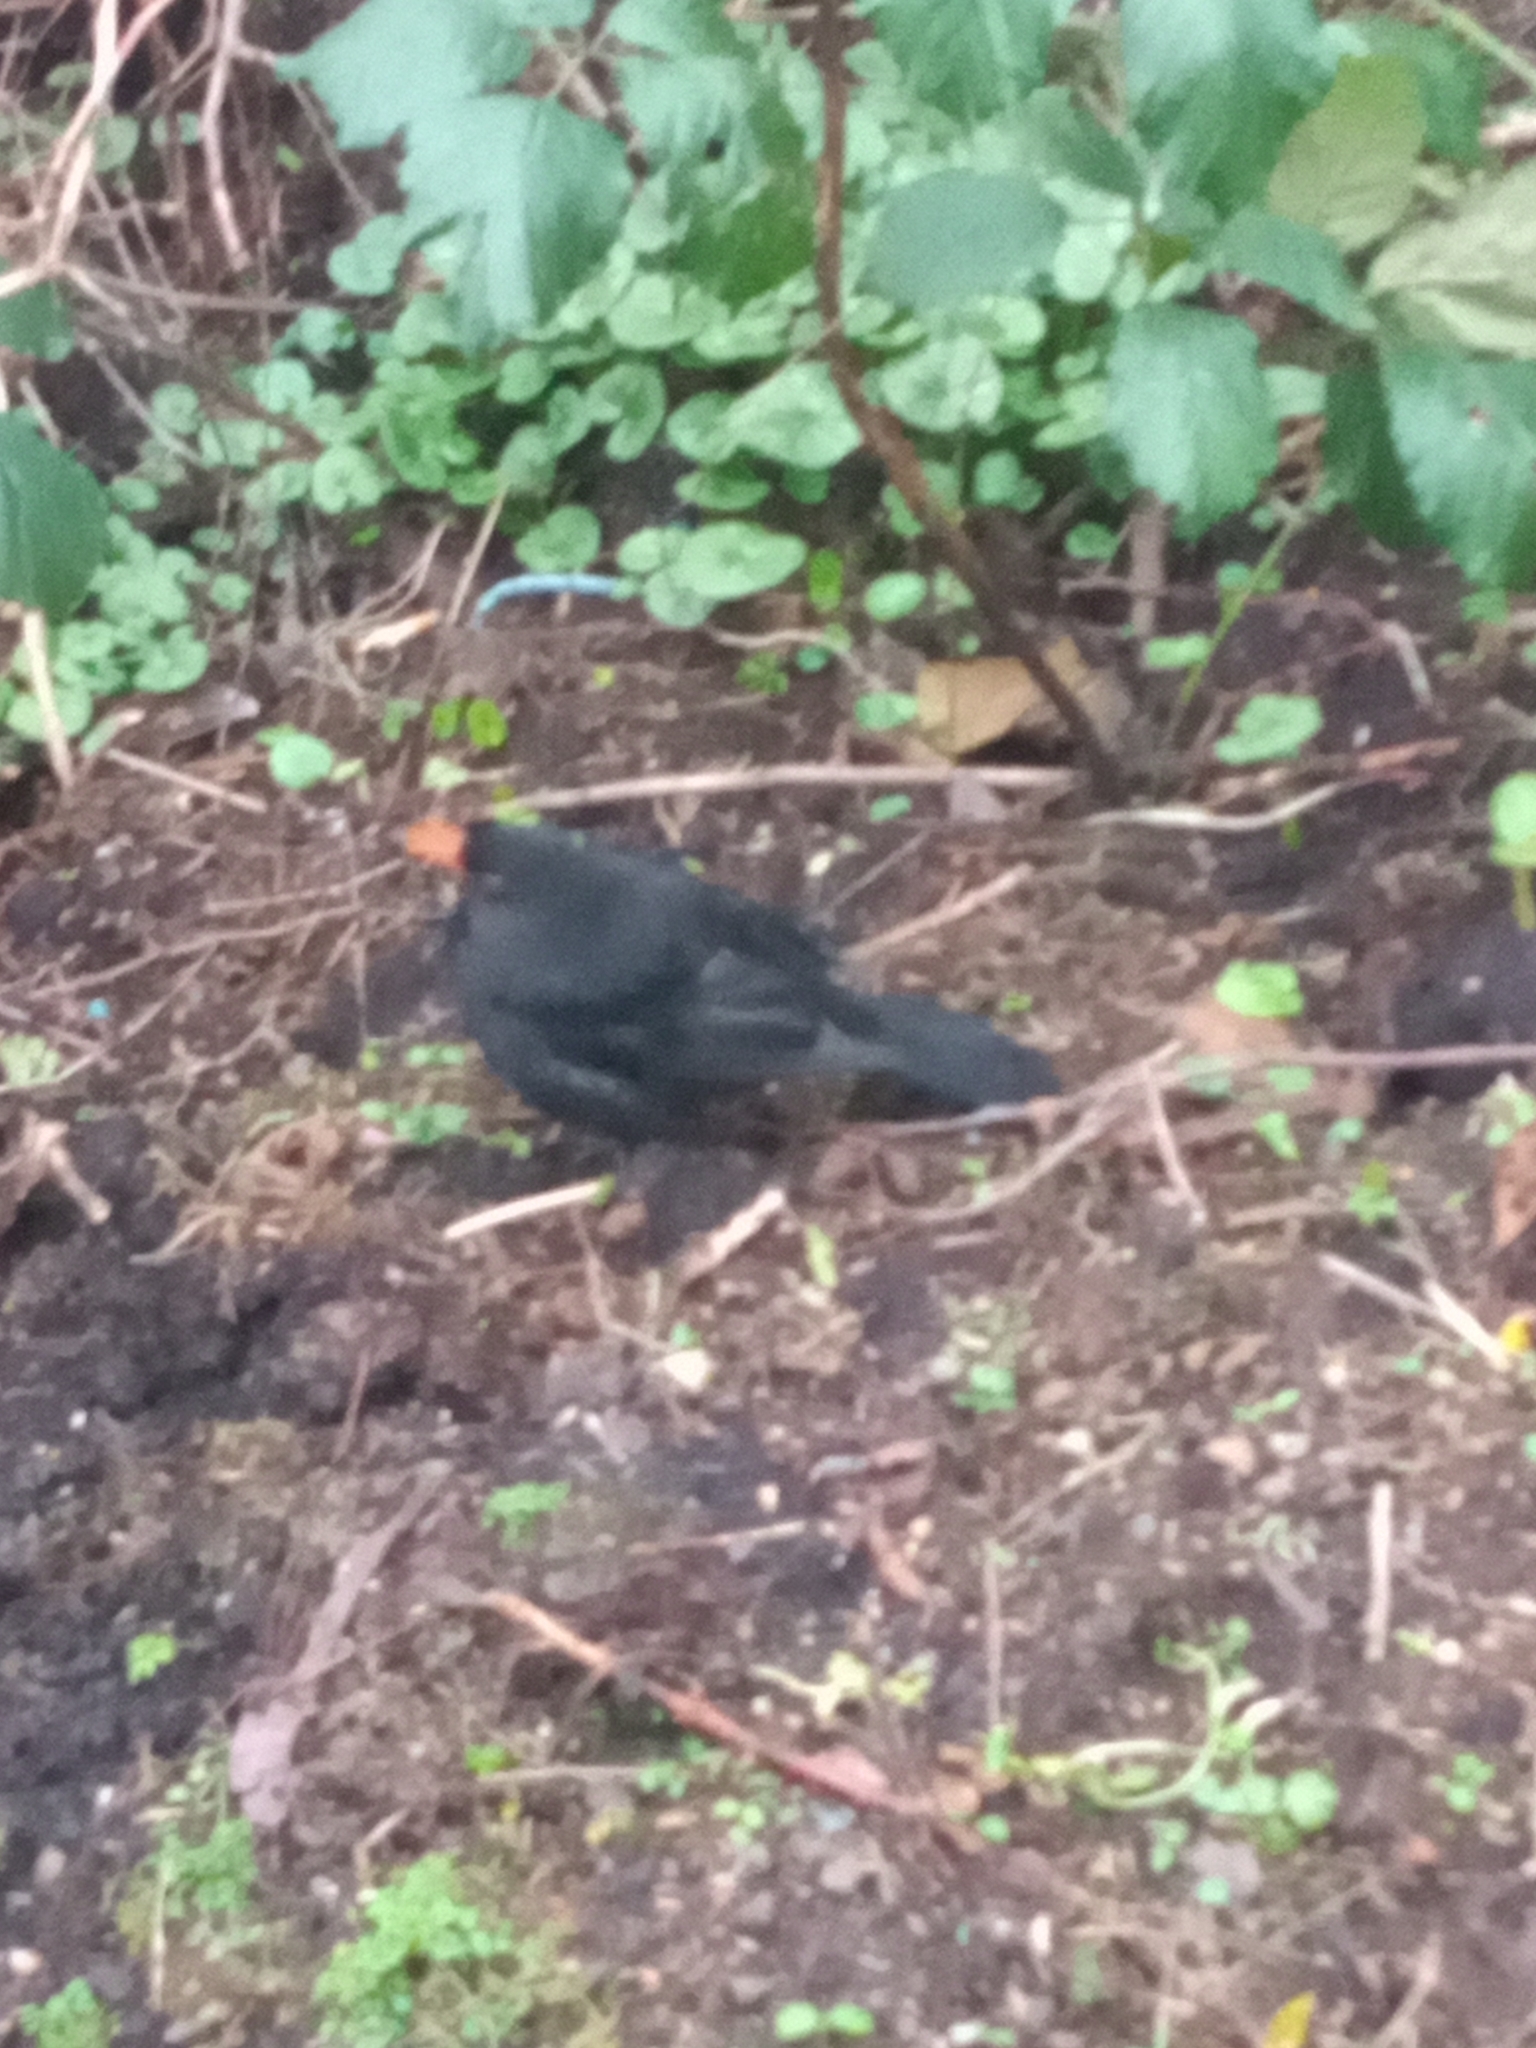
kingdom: Animalia
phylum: Chordata
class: Aves
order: Passeriformes
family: Turdidae
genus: Turdus
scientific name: Turdus merula
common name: Common blackbird
